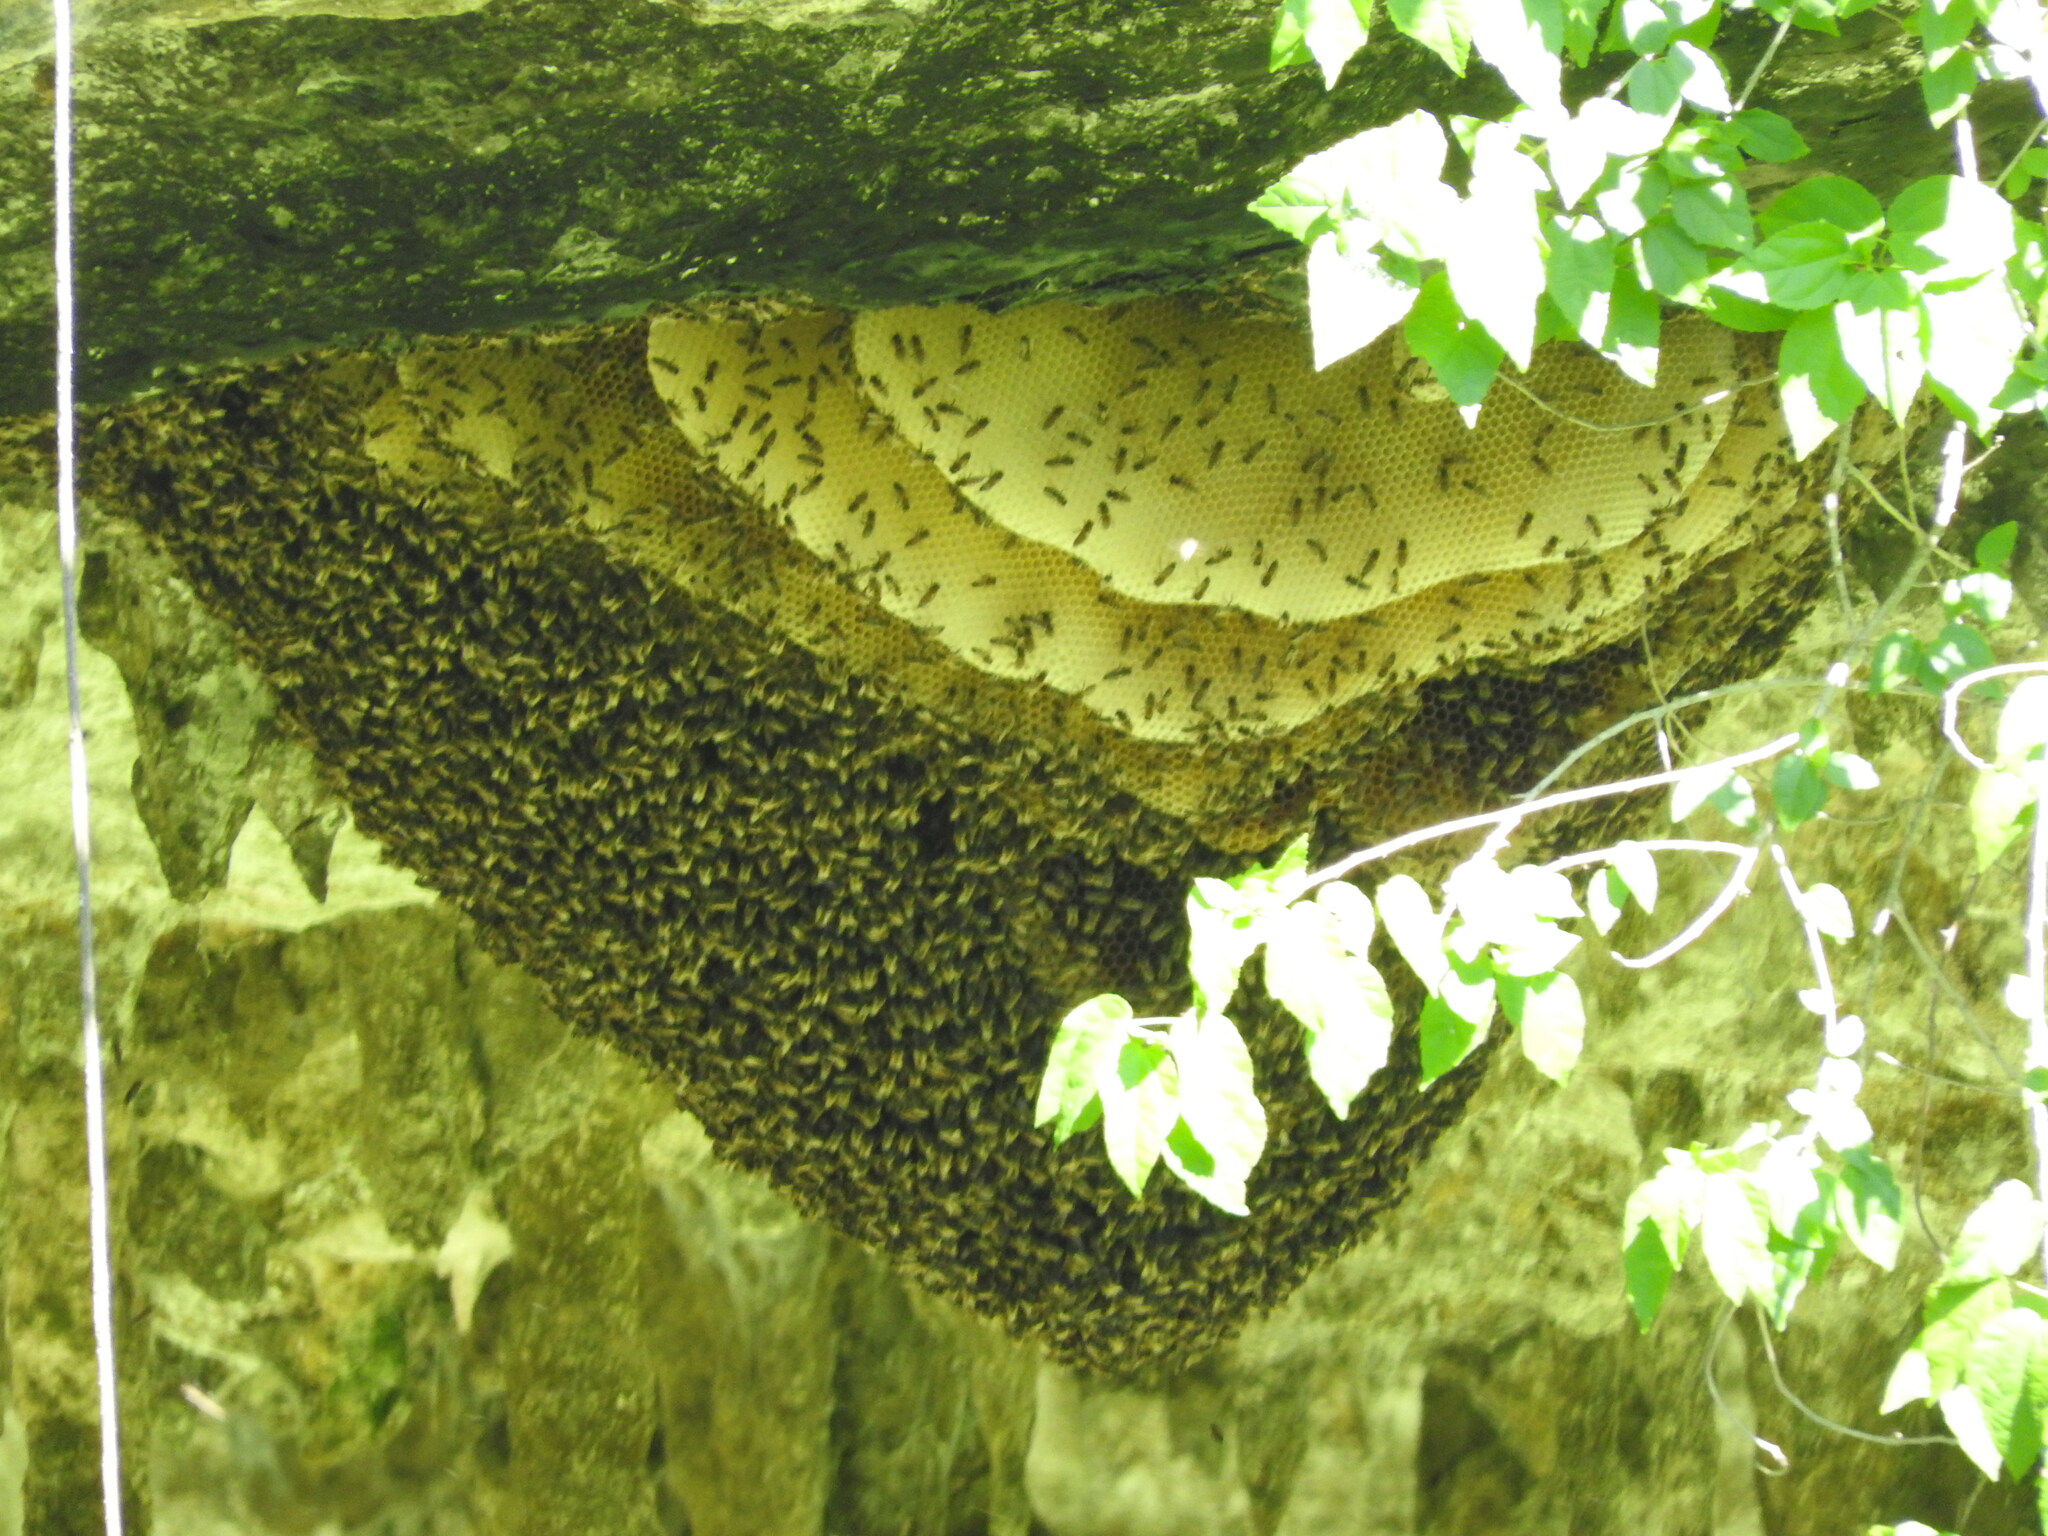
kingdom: Animalia
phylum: Arthropoda
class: Insecta
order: Hymenoptera
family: Apidae
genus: Apis
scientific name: Apis mellifera
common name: Honey bee
